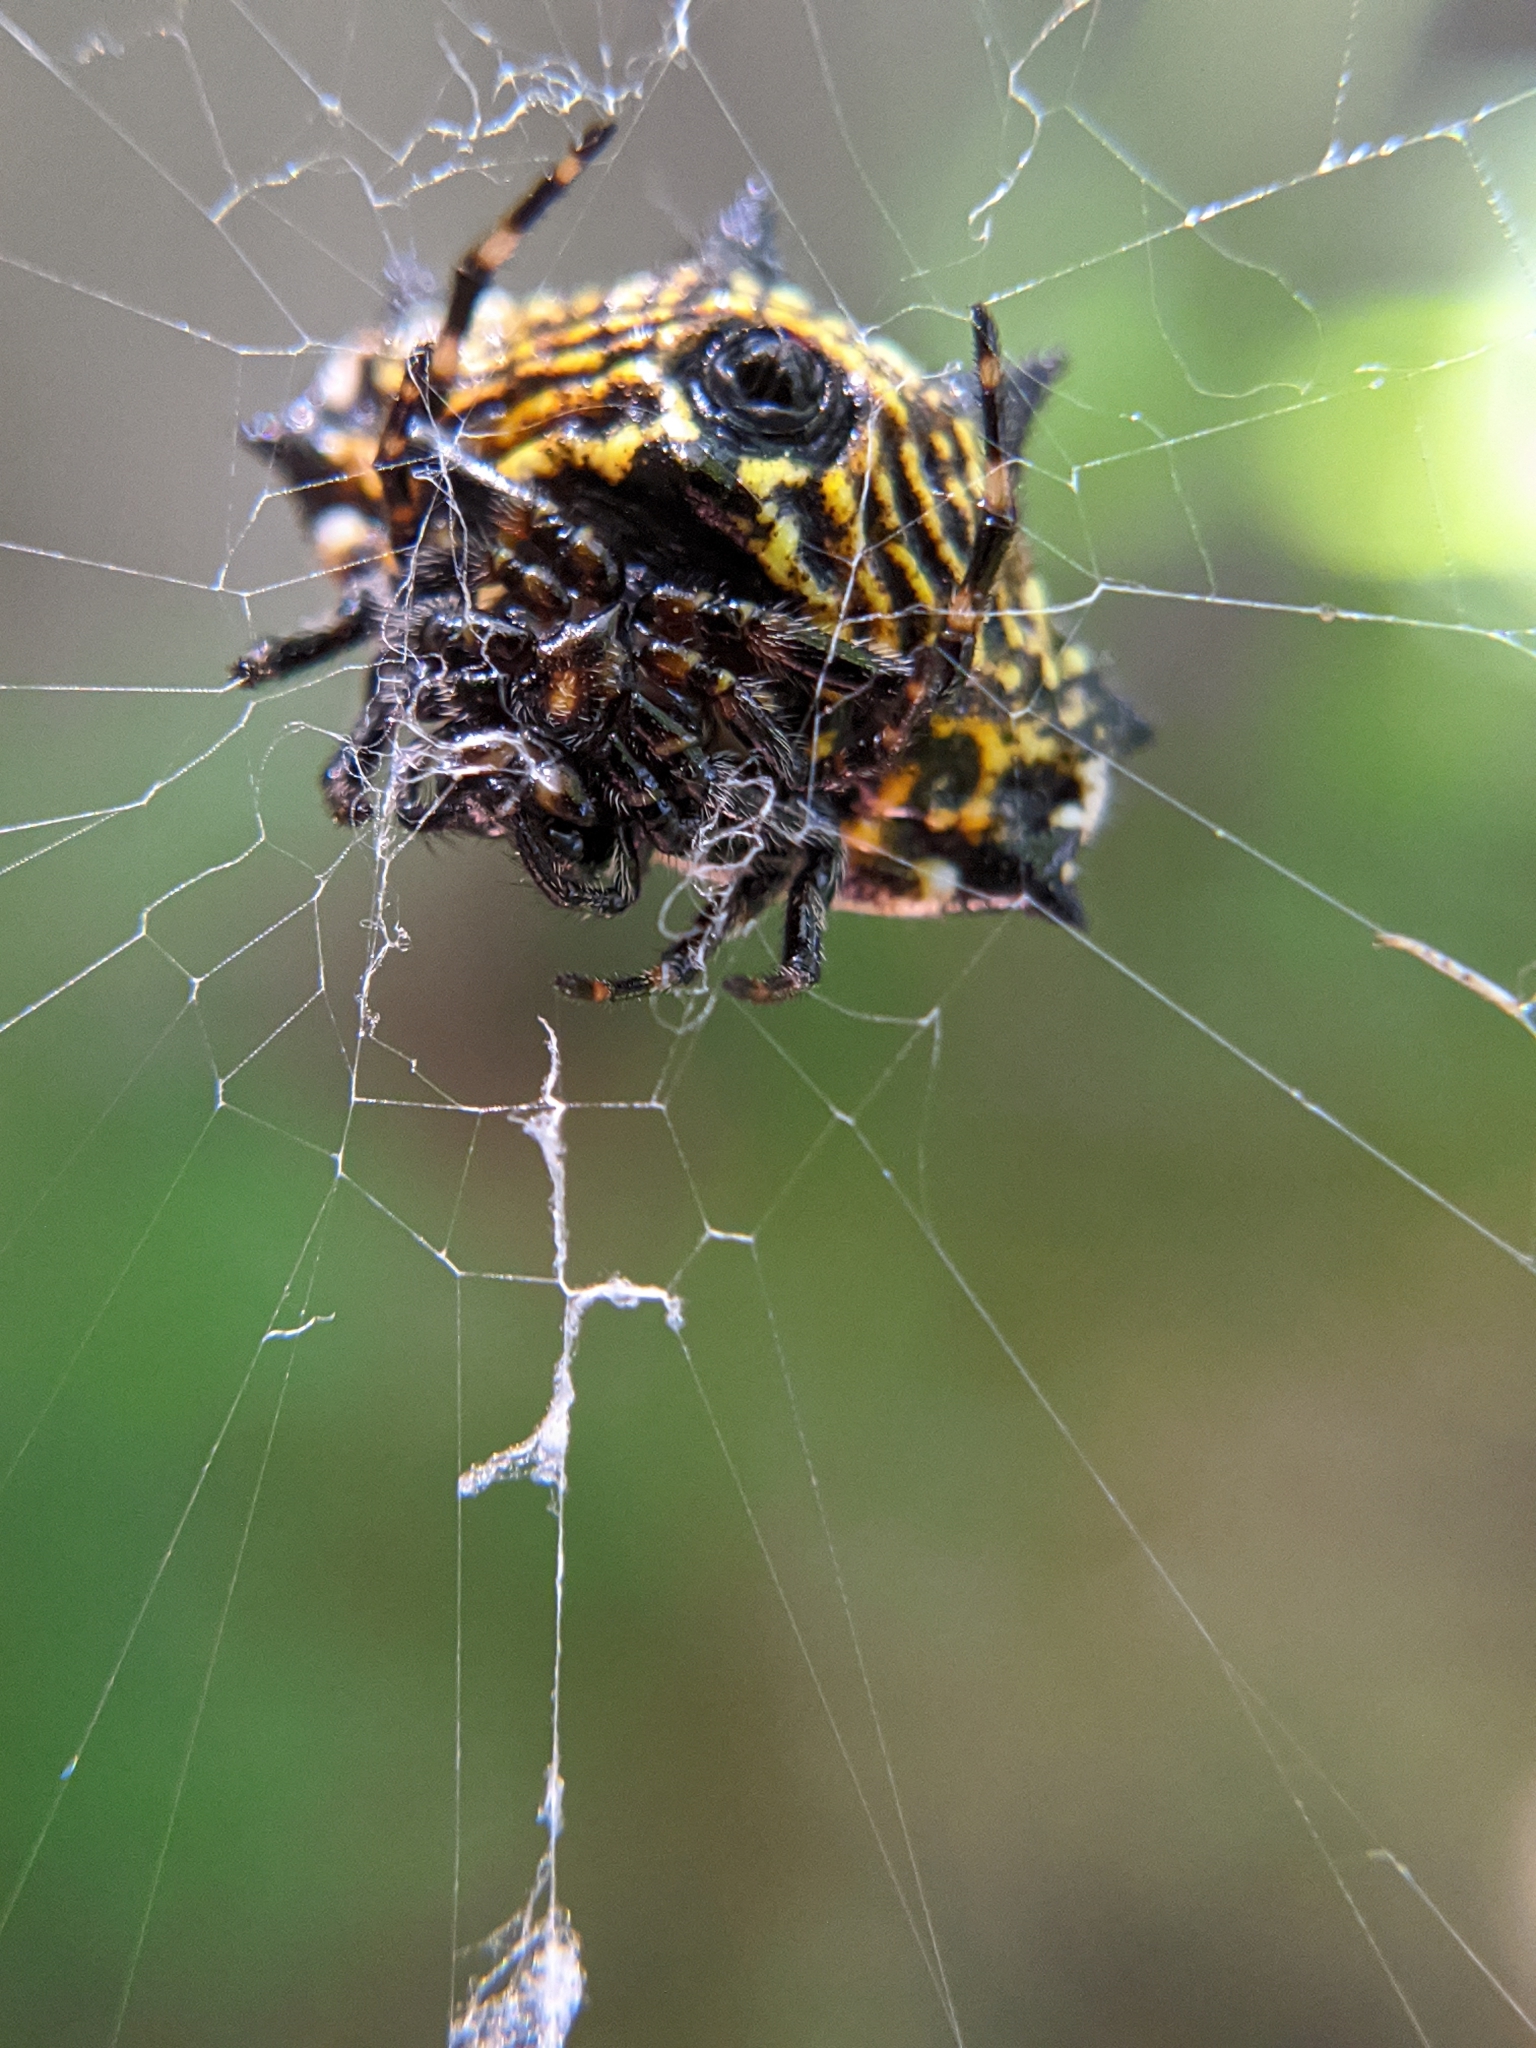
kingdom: Animalia
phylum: Arthropoda
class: Arachnida
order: Araneae
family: Araneidae
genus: Gasteracantha
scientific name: Gasteracantha cancriformis
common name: Orb weavers
